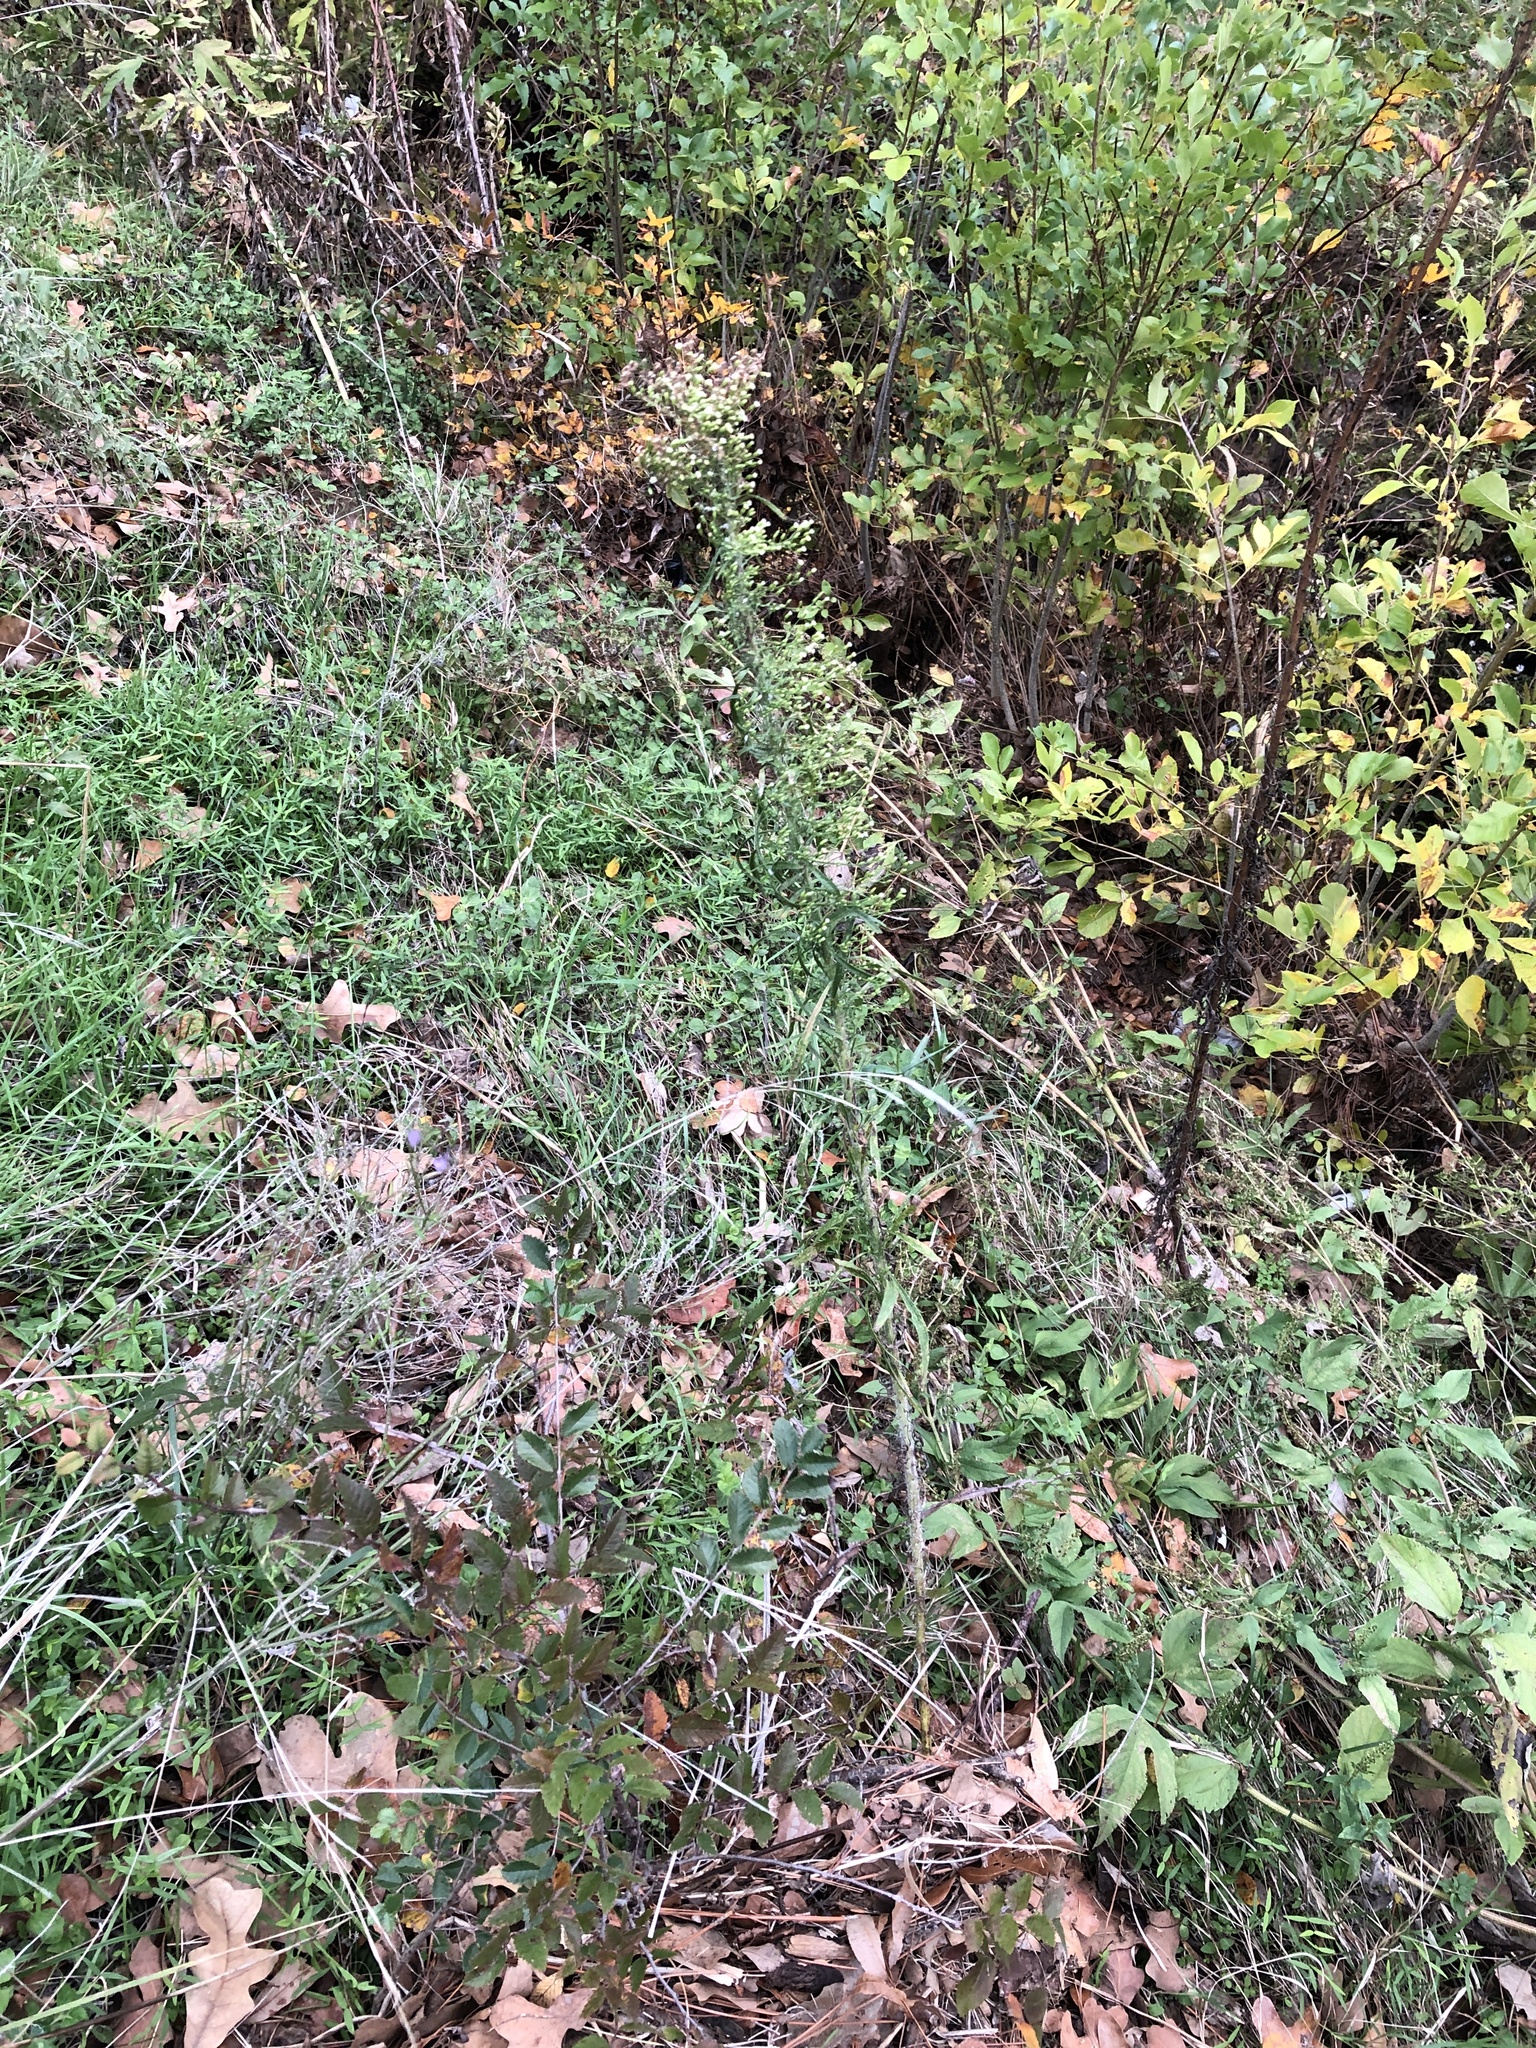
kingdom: Plantae
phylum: Tracheophyta
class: Magnoliopsida
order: Asterales
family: Asteraceae
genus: Erigeron
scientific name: Erigeron canadensis
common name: Canadian fleabane
